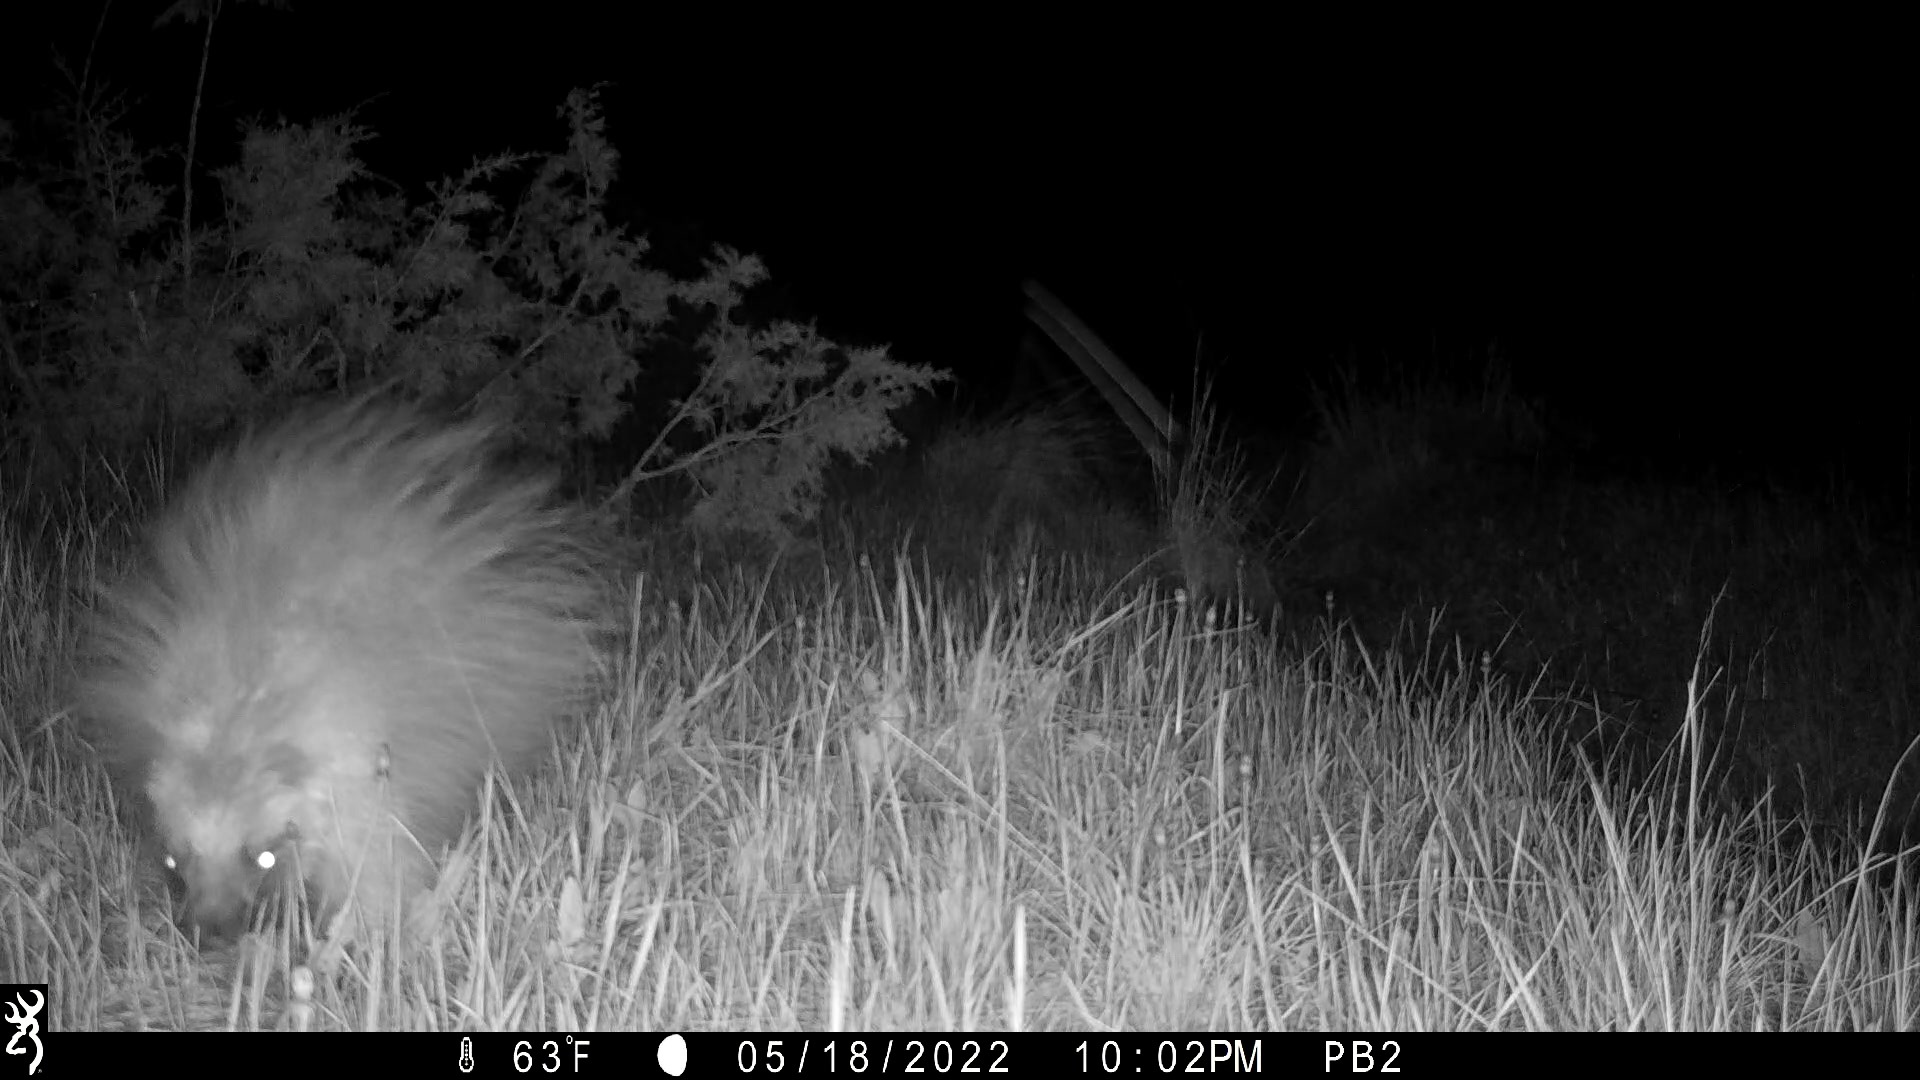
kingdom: Animalia
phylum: Chordata
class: Mammalia
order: Rodentia
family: Erethizontidae
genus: Erethizon
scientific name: Erethizon dorsatus
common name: North american porcupine
